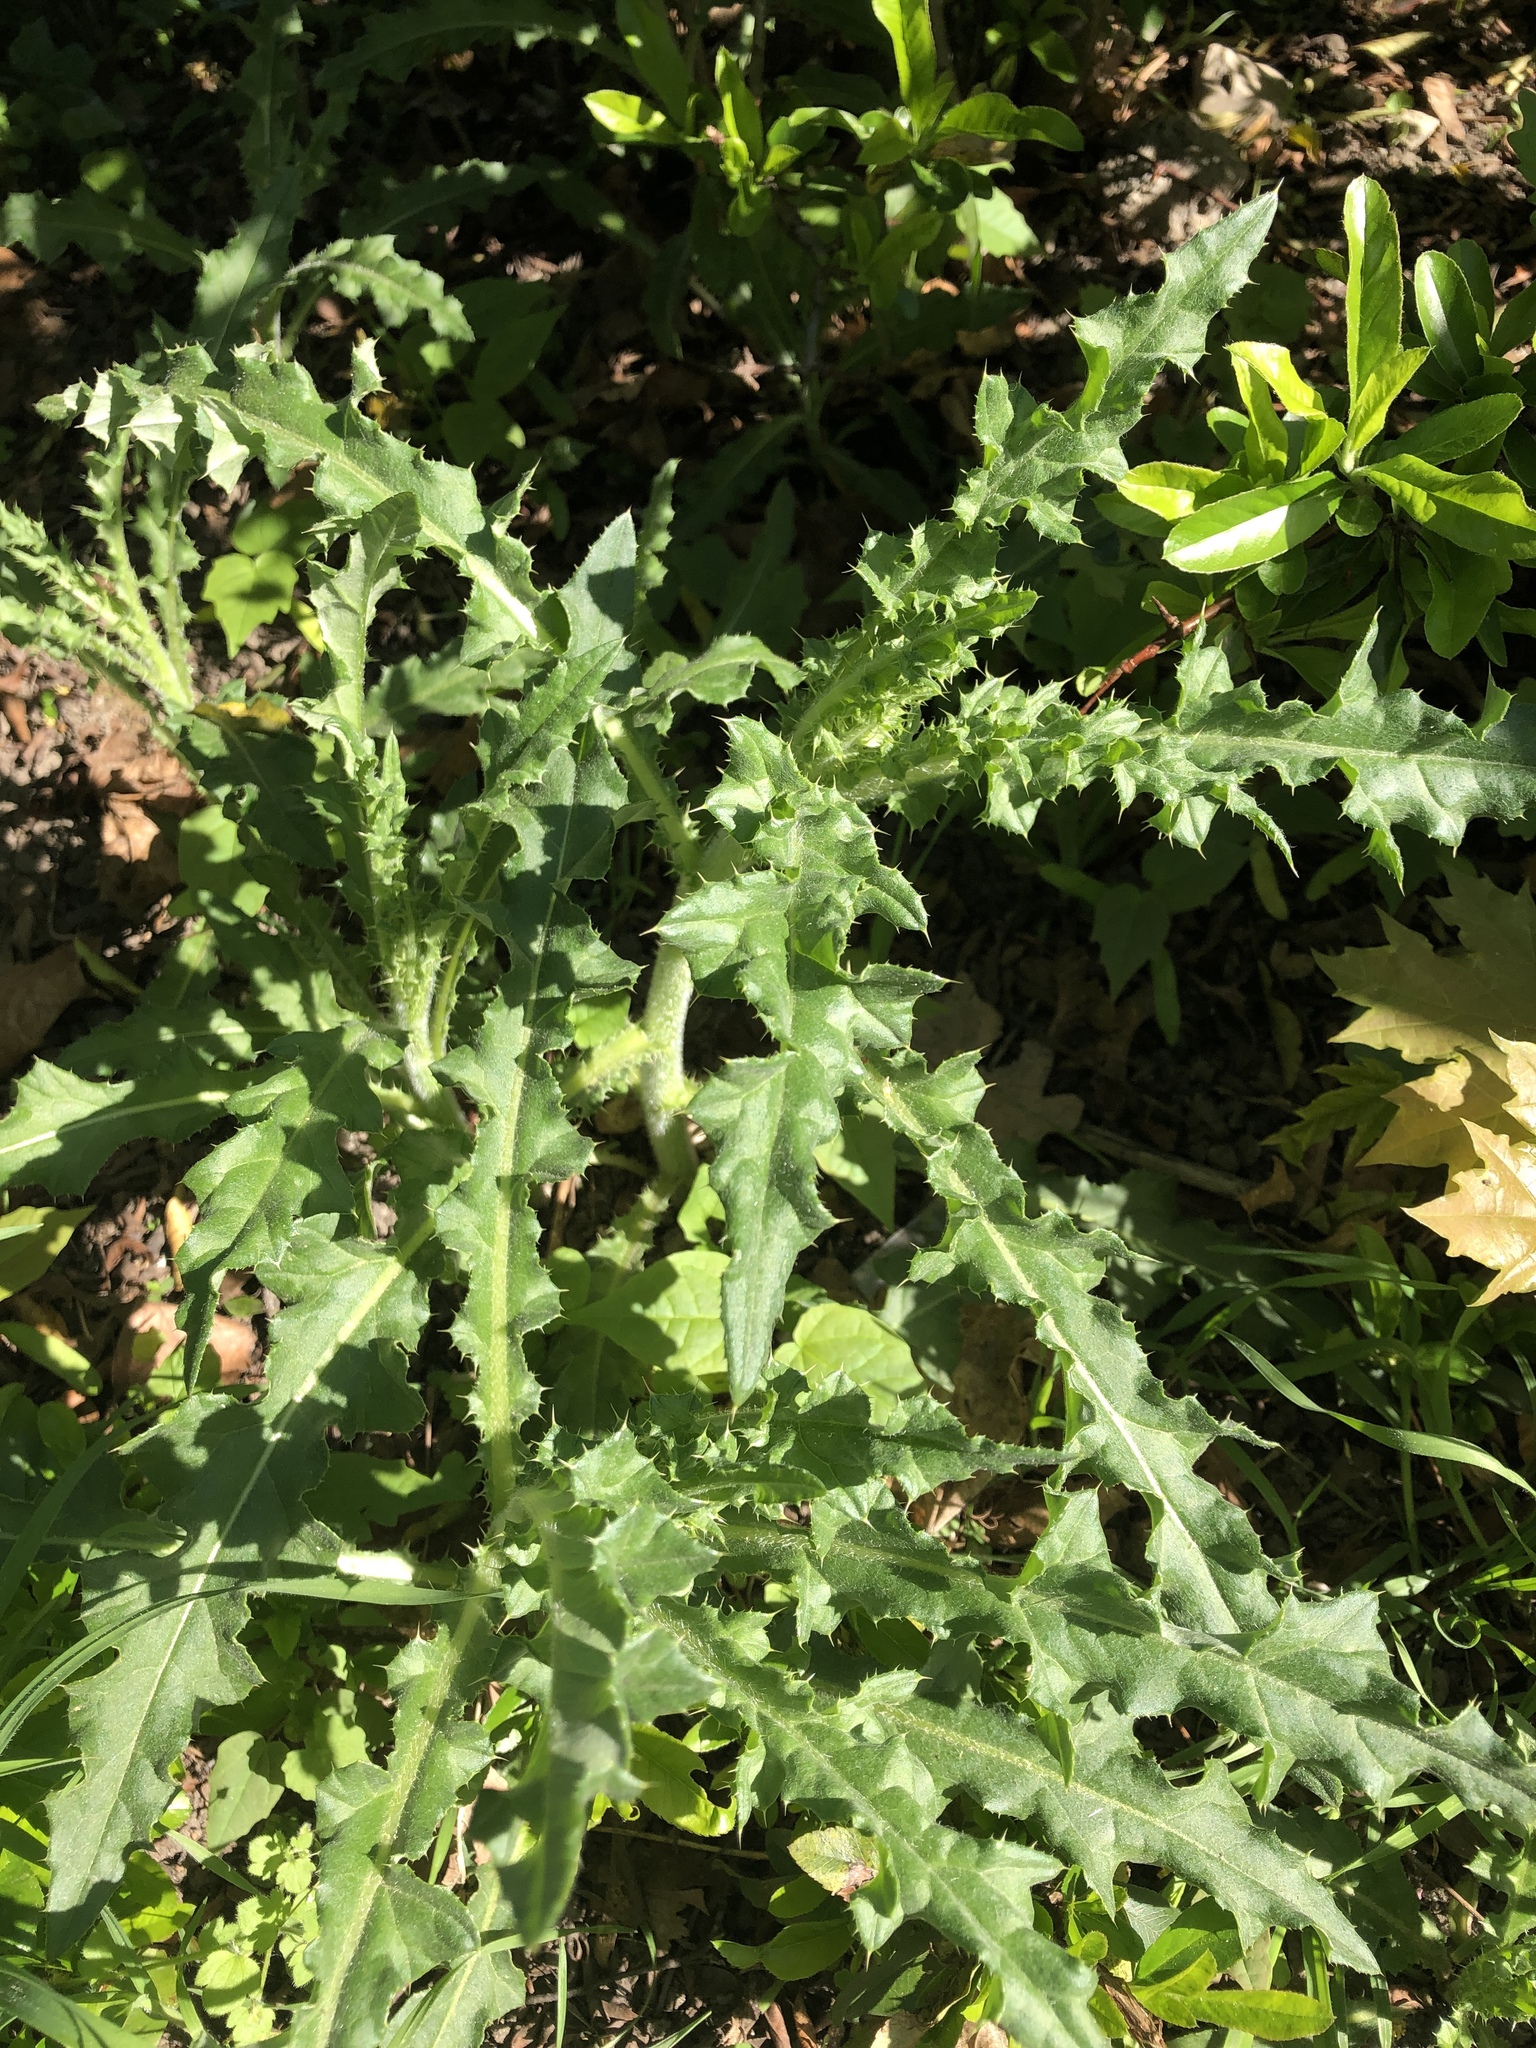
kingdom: Plantae
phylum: Tracheophyta
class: Magnoliopsida
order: Asterales
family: Asteraceae
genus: Cirsium
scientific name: Cirsium arvense
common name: Creeping thistle
